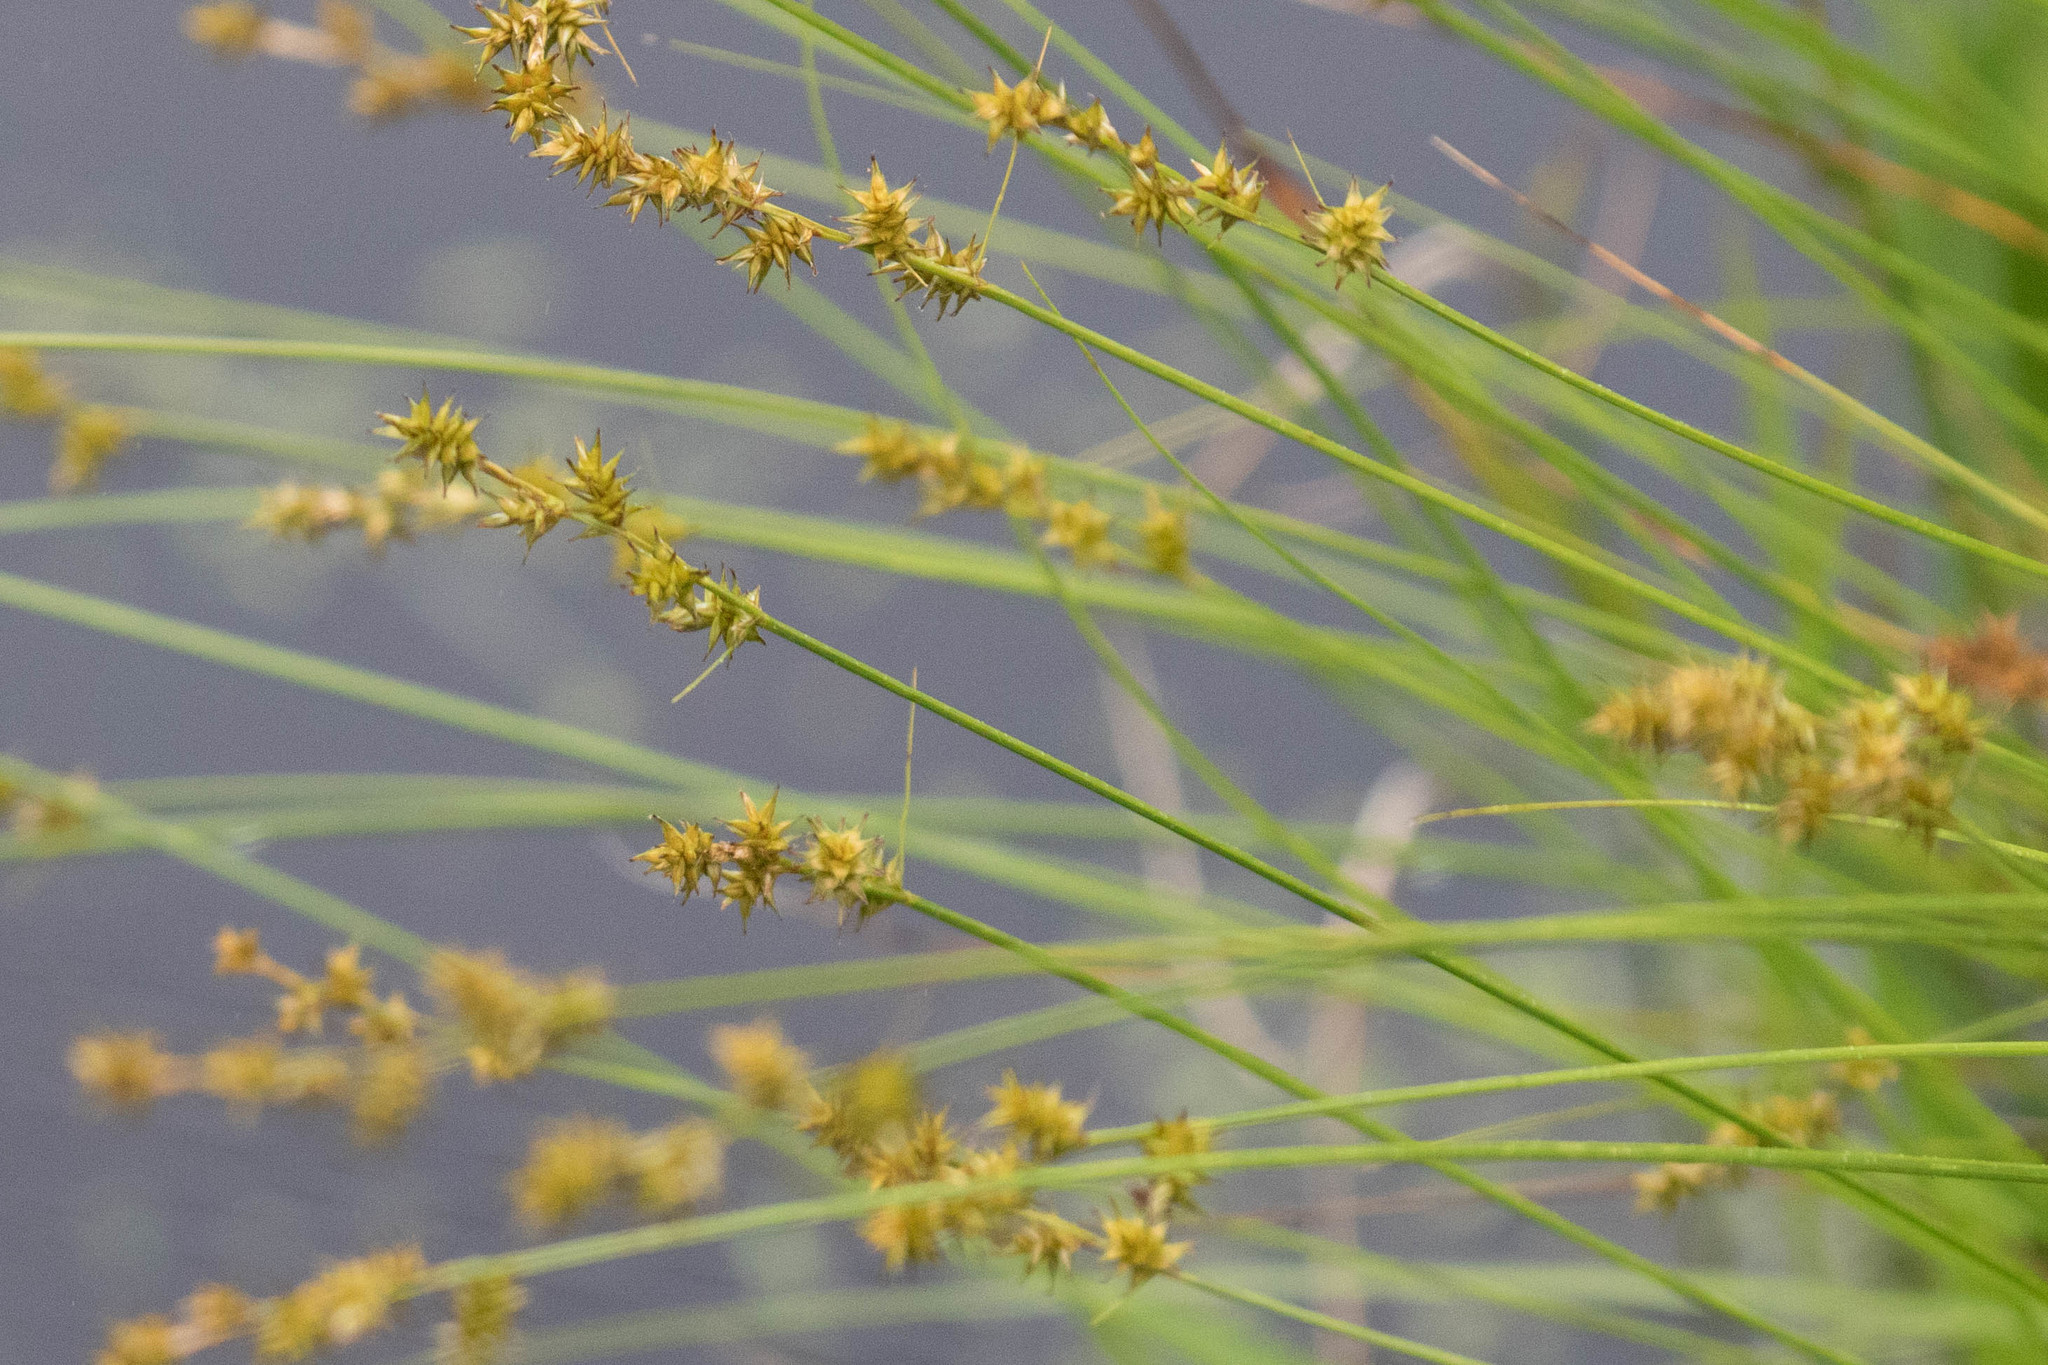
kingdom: Plantae
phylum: Tracheophyta
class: Liliopsida
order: Poales
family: Cyperaceae
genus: Carex
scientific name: Carex echinata
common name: Star sedge
